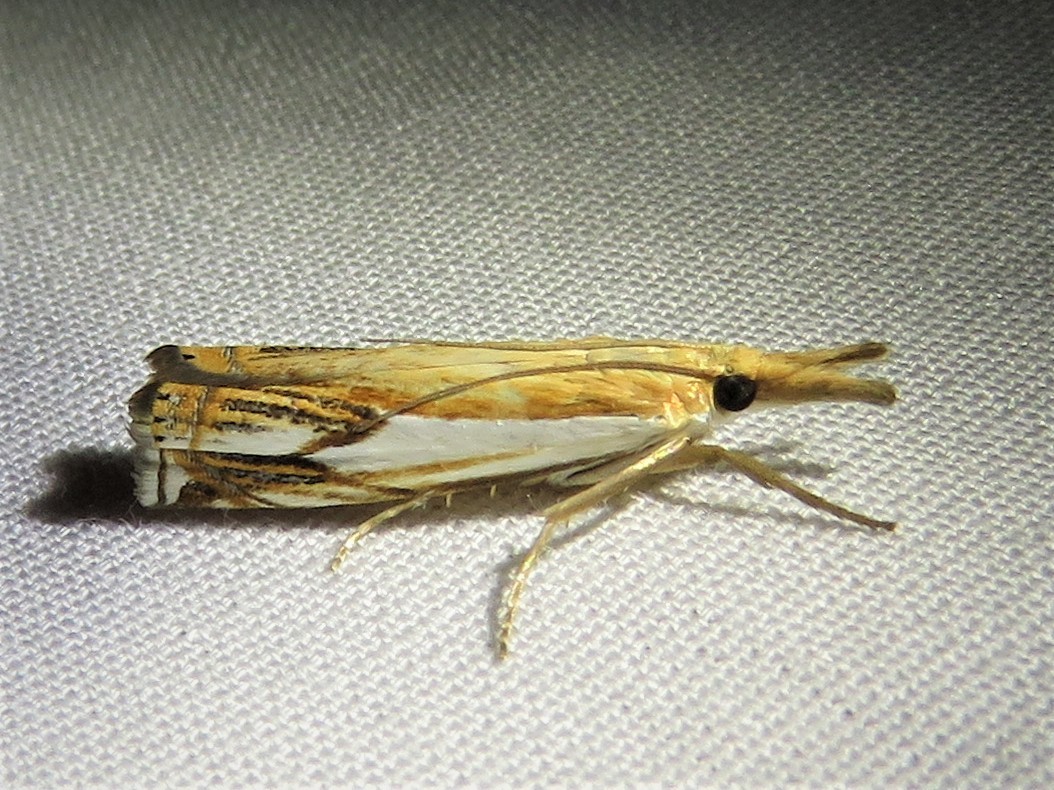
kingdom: Animalia
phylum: Arthropoda
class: Insecta
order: Lepidoptera
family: Crambidae
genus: Crambus
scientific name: Crambus agitatellus
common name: Double-banded grass-veneer
